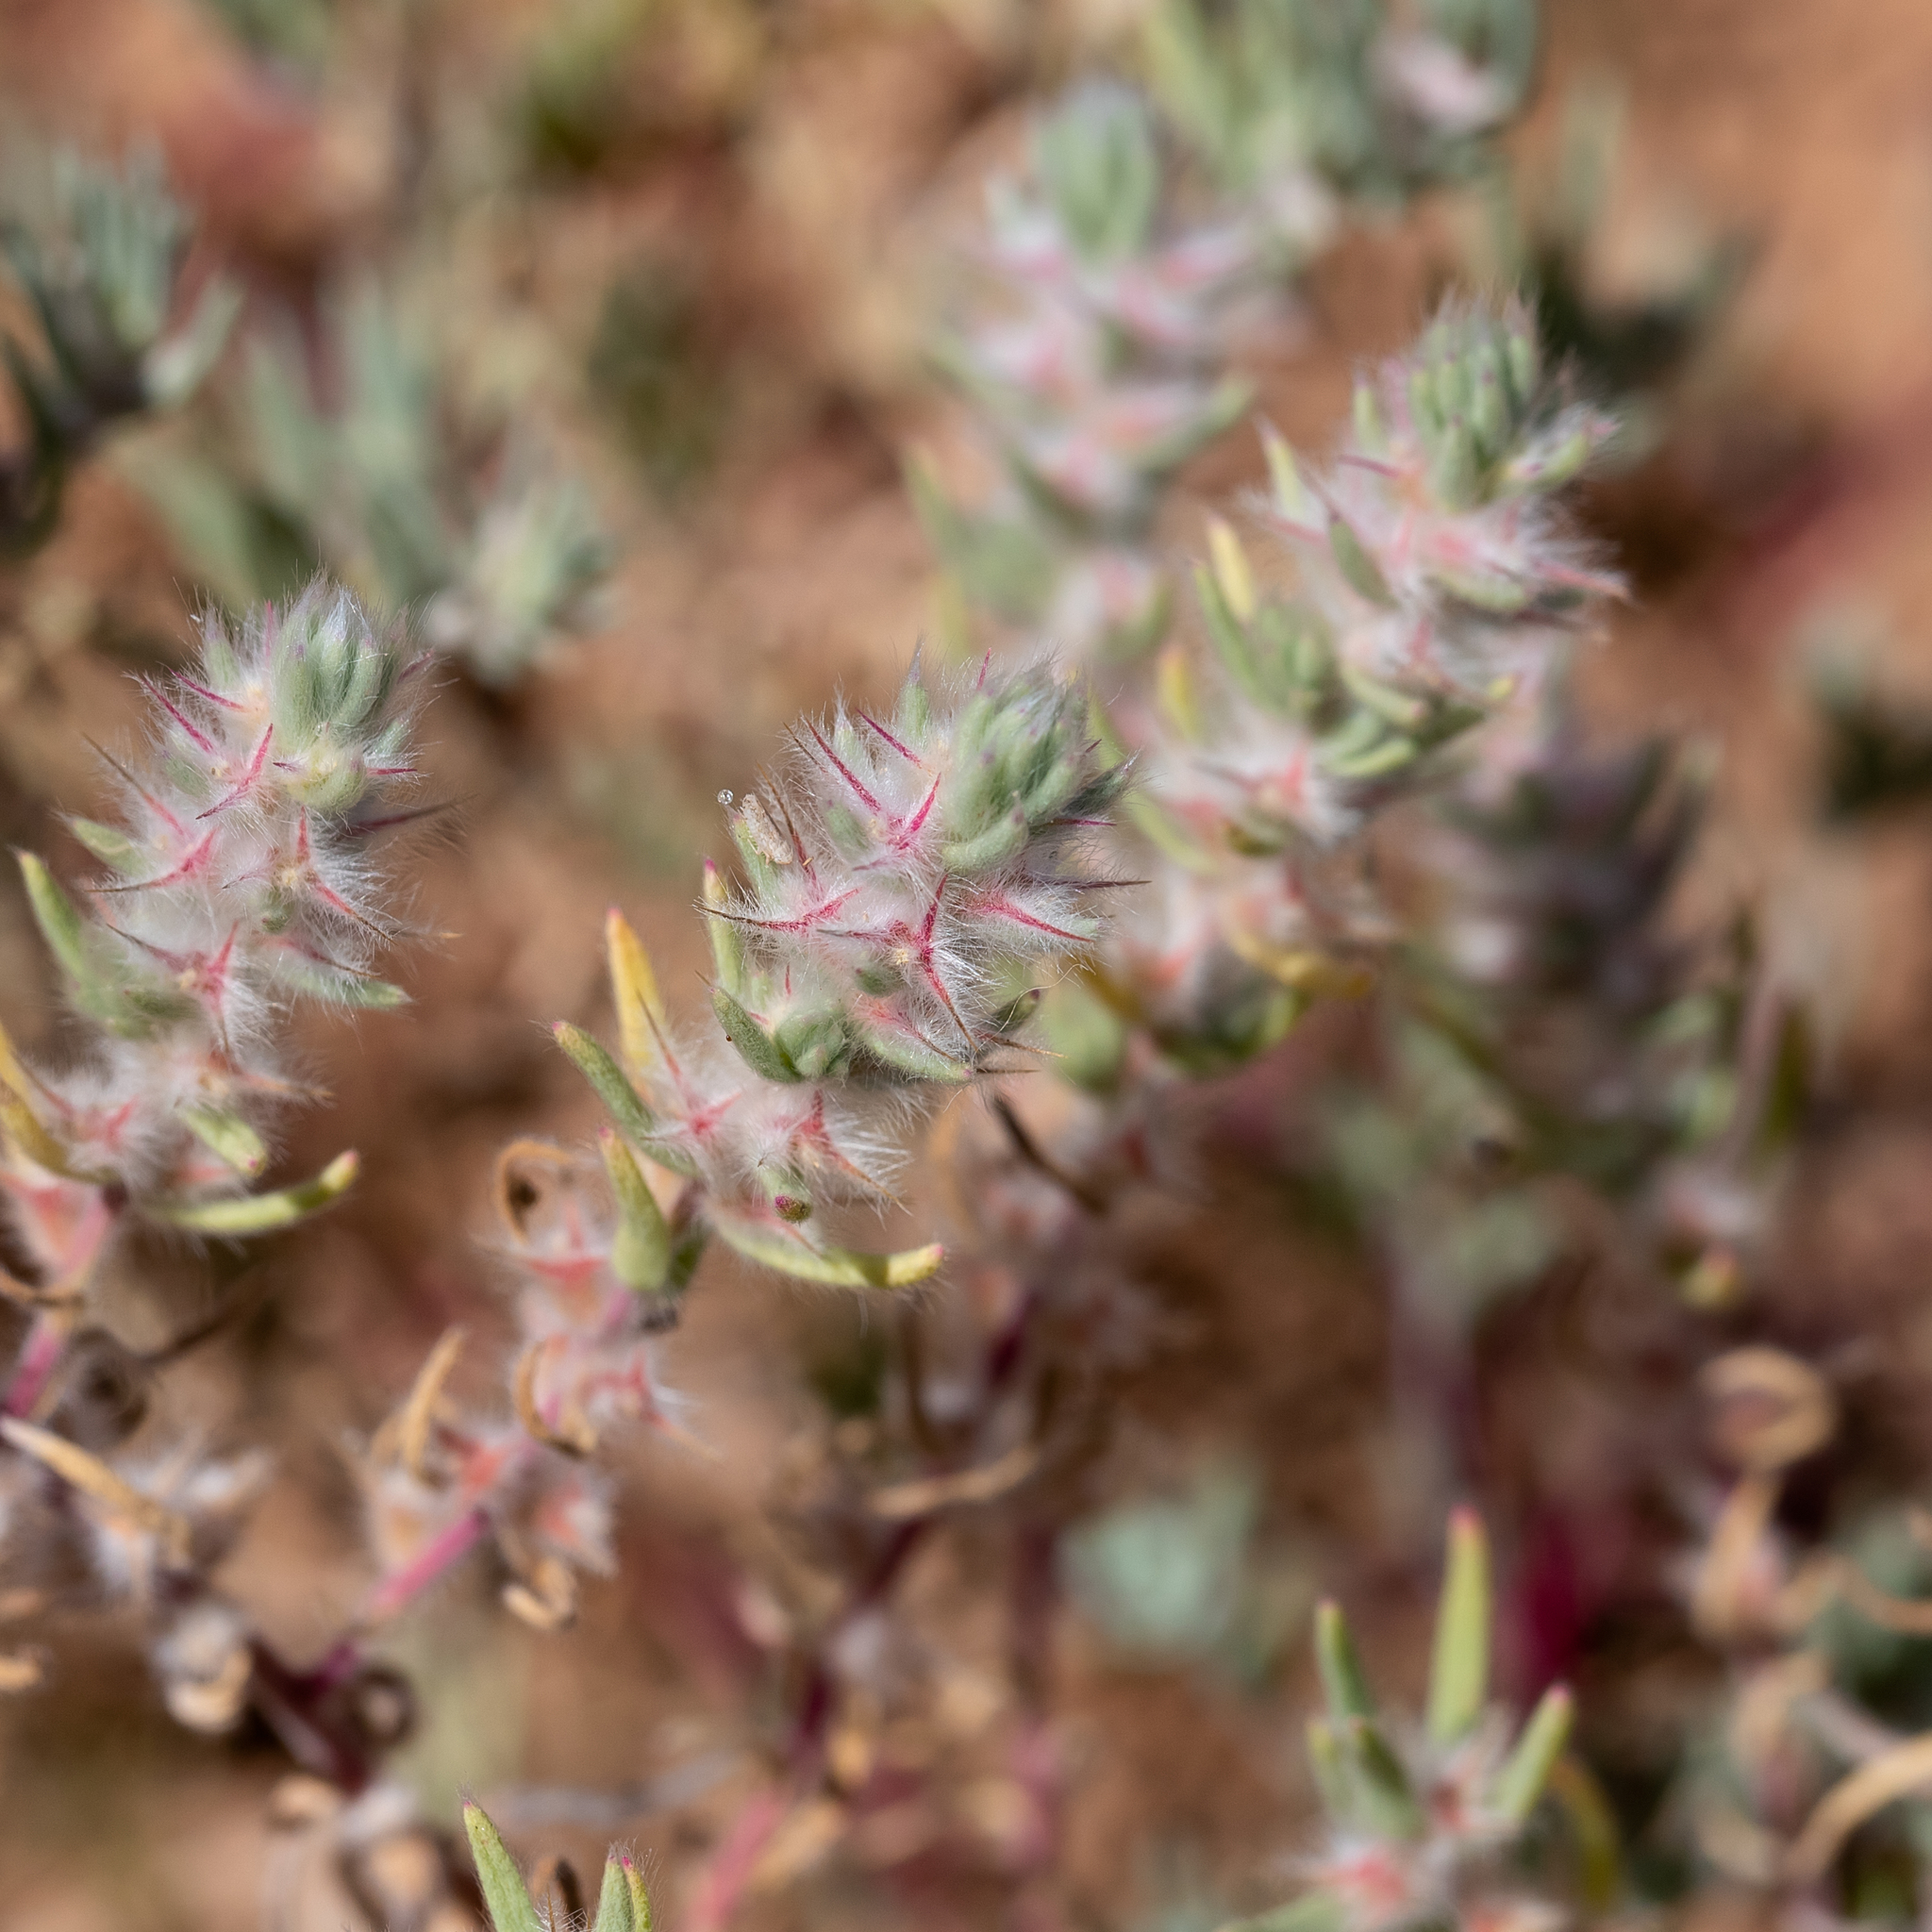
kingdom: Plantae
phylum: Tracheophyta
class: Magnoliopsida
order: Caryophyllales
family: Amaranthaceae
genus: Sclerolaena
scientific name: Sclerolaena lanicuspis
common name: Copperbur
